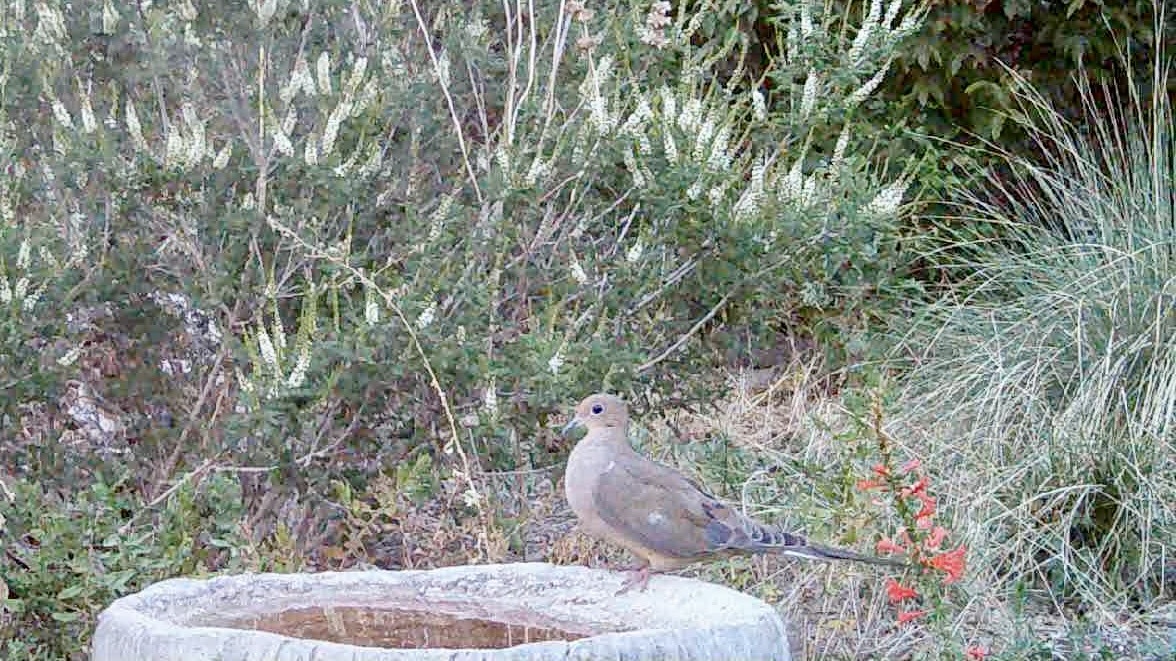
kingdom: Animalia
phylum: Chordata
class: Aves
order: Columbiformes
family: Columbidae
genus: Zenaida
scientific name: Zenaida macroura
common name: Mourning dove
